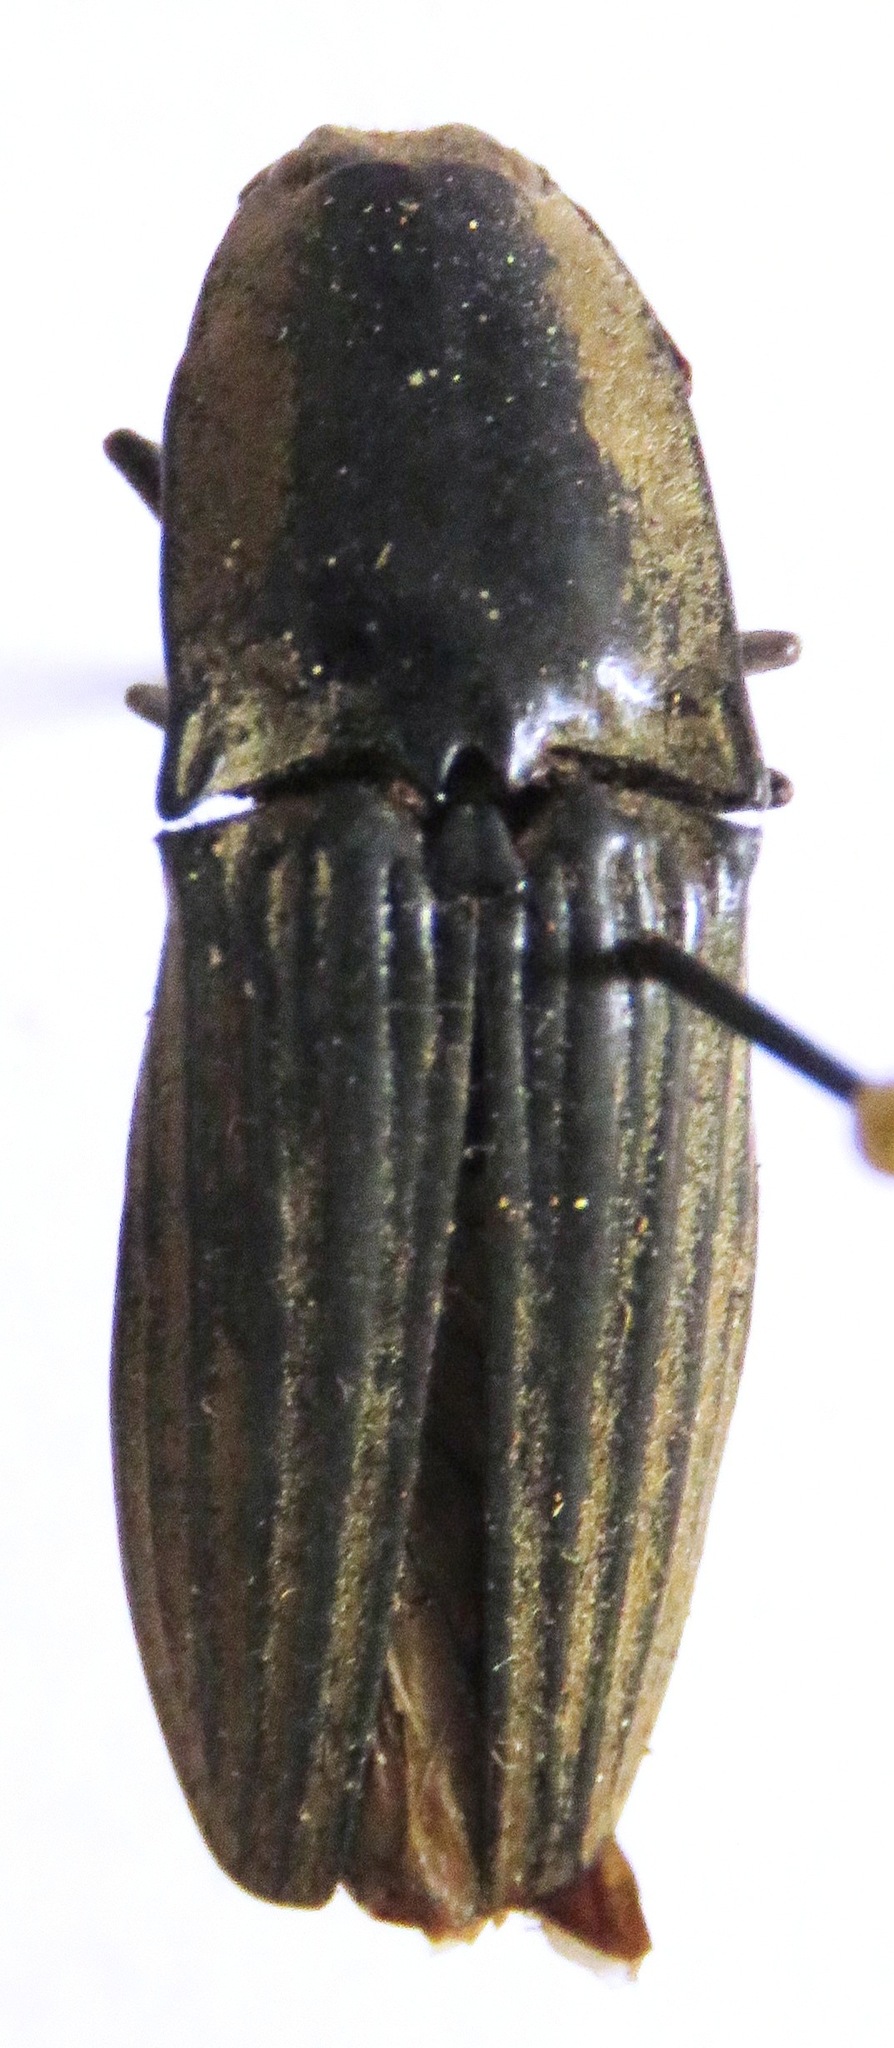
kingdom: Animalia
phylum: Arthropoda
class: Insecta
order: Coleoptera
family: Elateridae
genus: Chalcolepidius
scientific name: Chalcolepidius silbermanni
